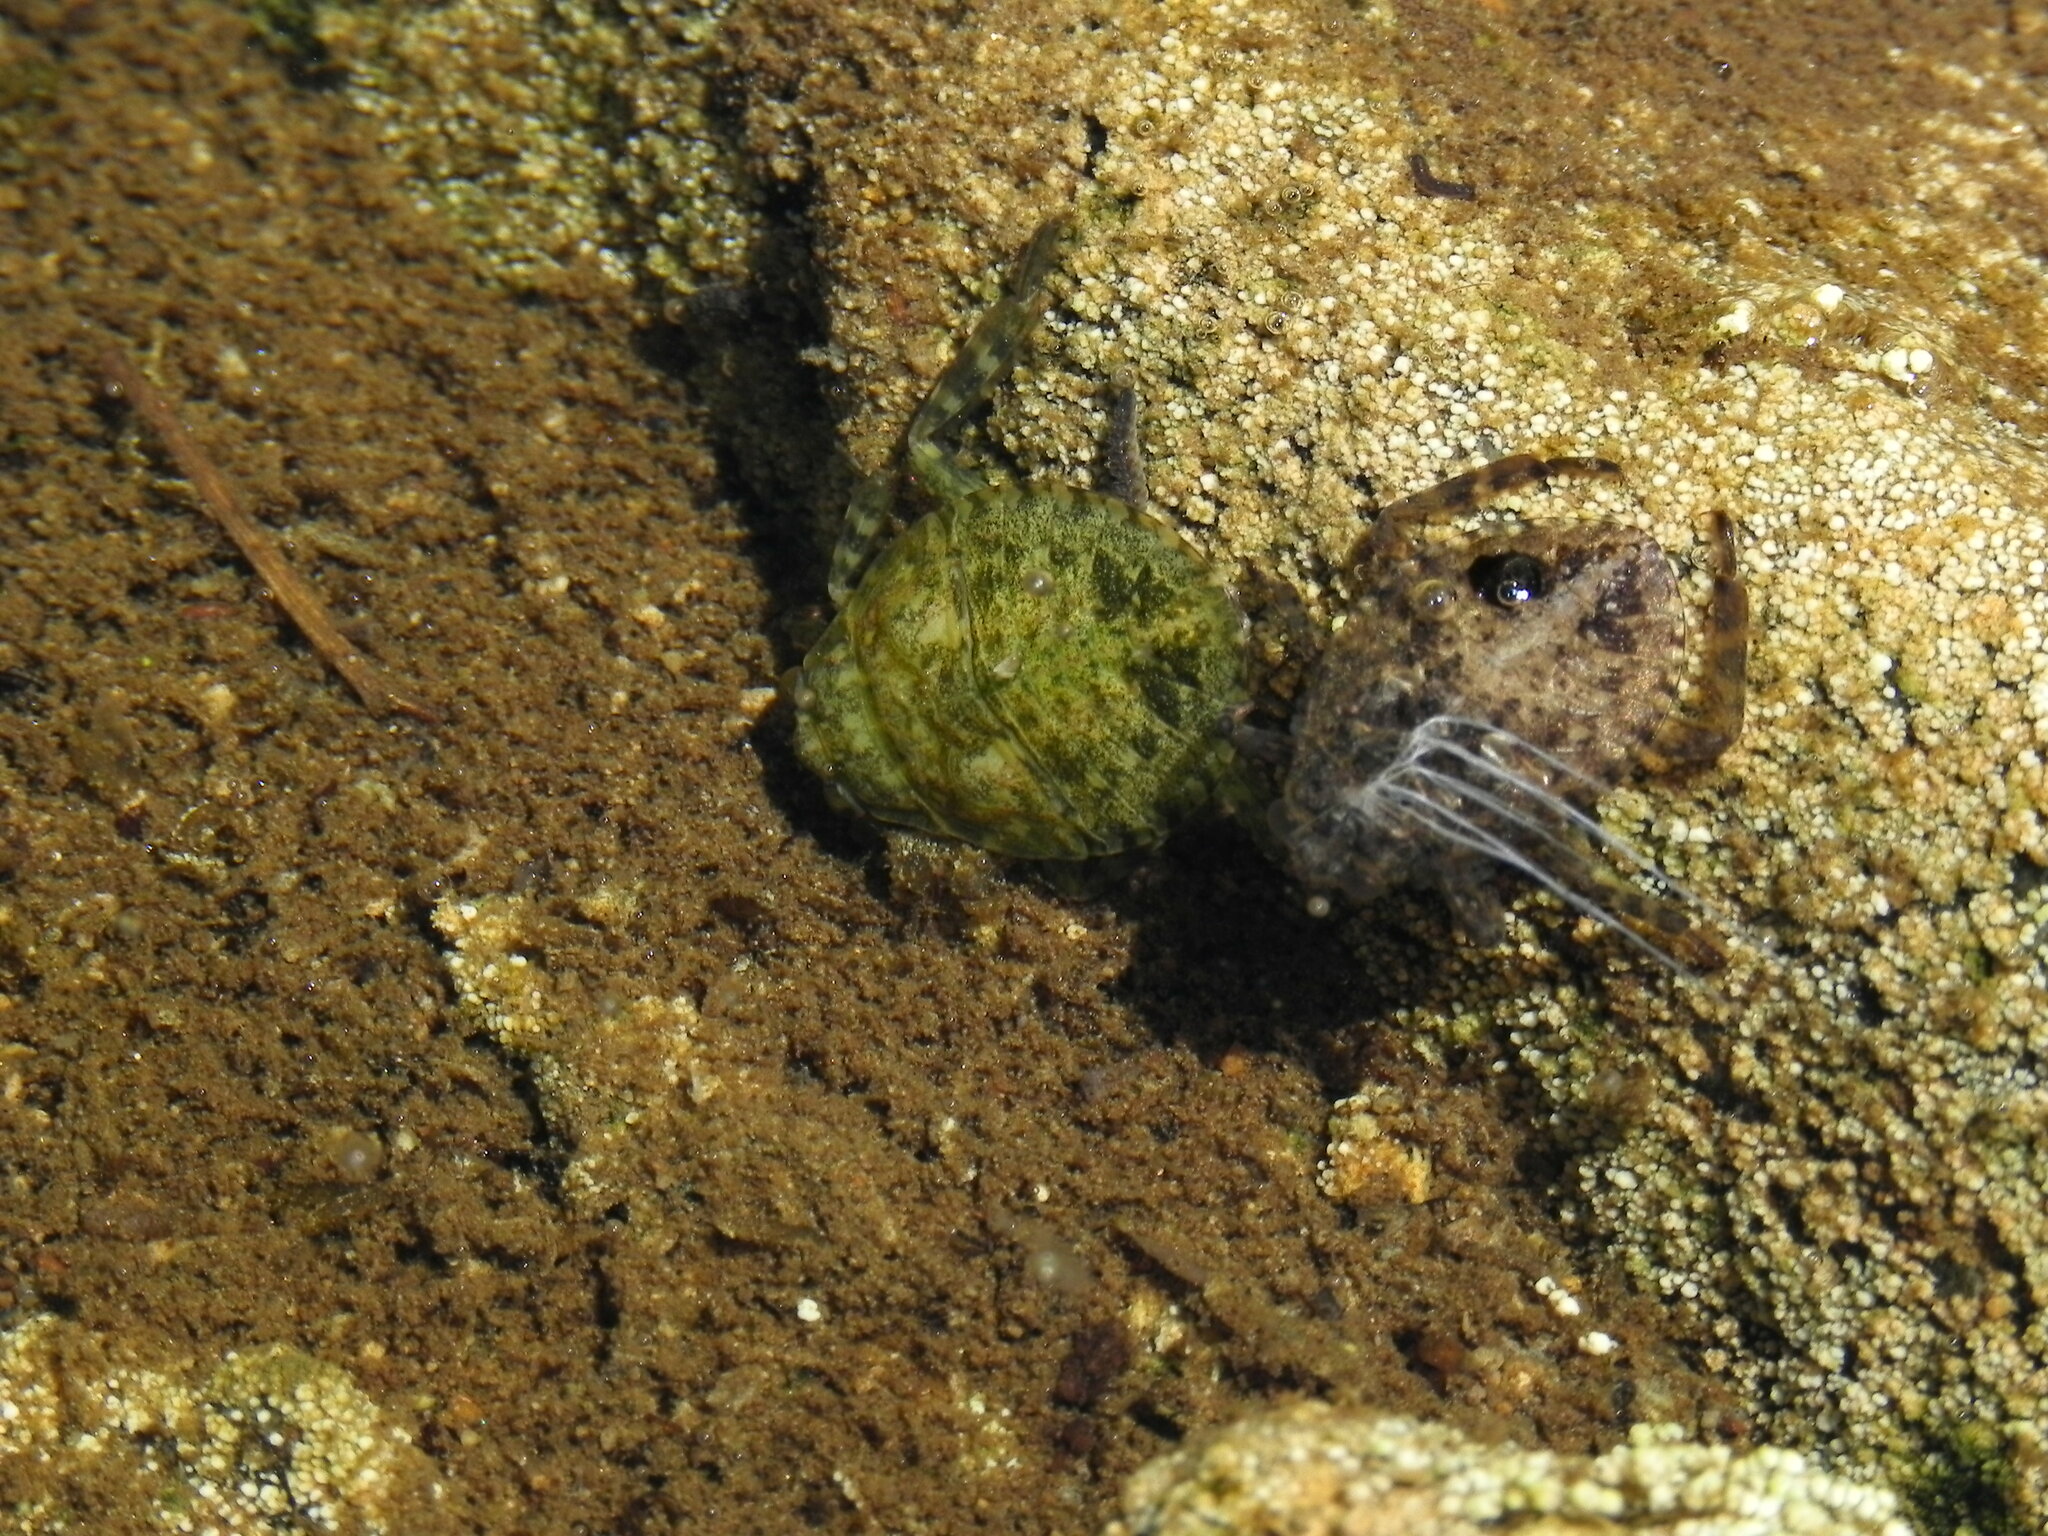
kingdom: Animalia
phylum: Arthropoda
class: Insecta
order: Hemiptera
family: Belostomatidae
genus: Abedus
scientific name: Abedus indentatus
